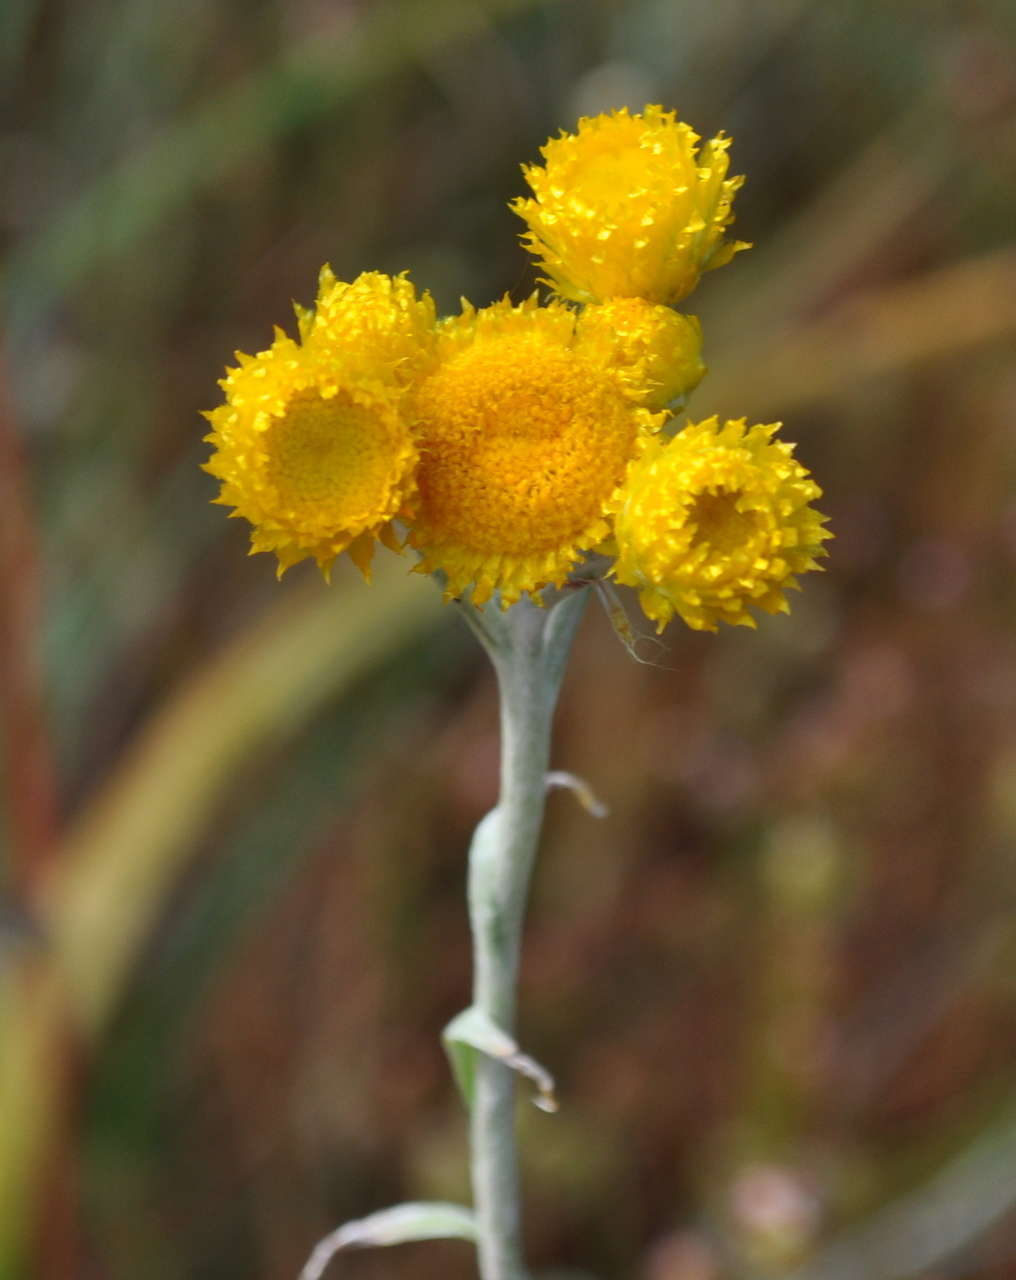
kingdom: Plantae
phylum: Tracheophyta
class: Magnoliopsida
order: Asterales
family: Asteraceae
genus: Chrysocephalum
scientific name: Chrysocephalum apiculatum
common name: Common everlasting
